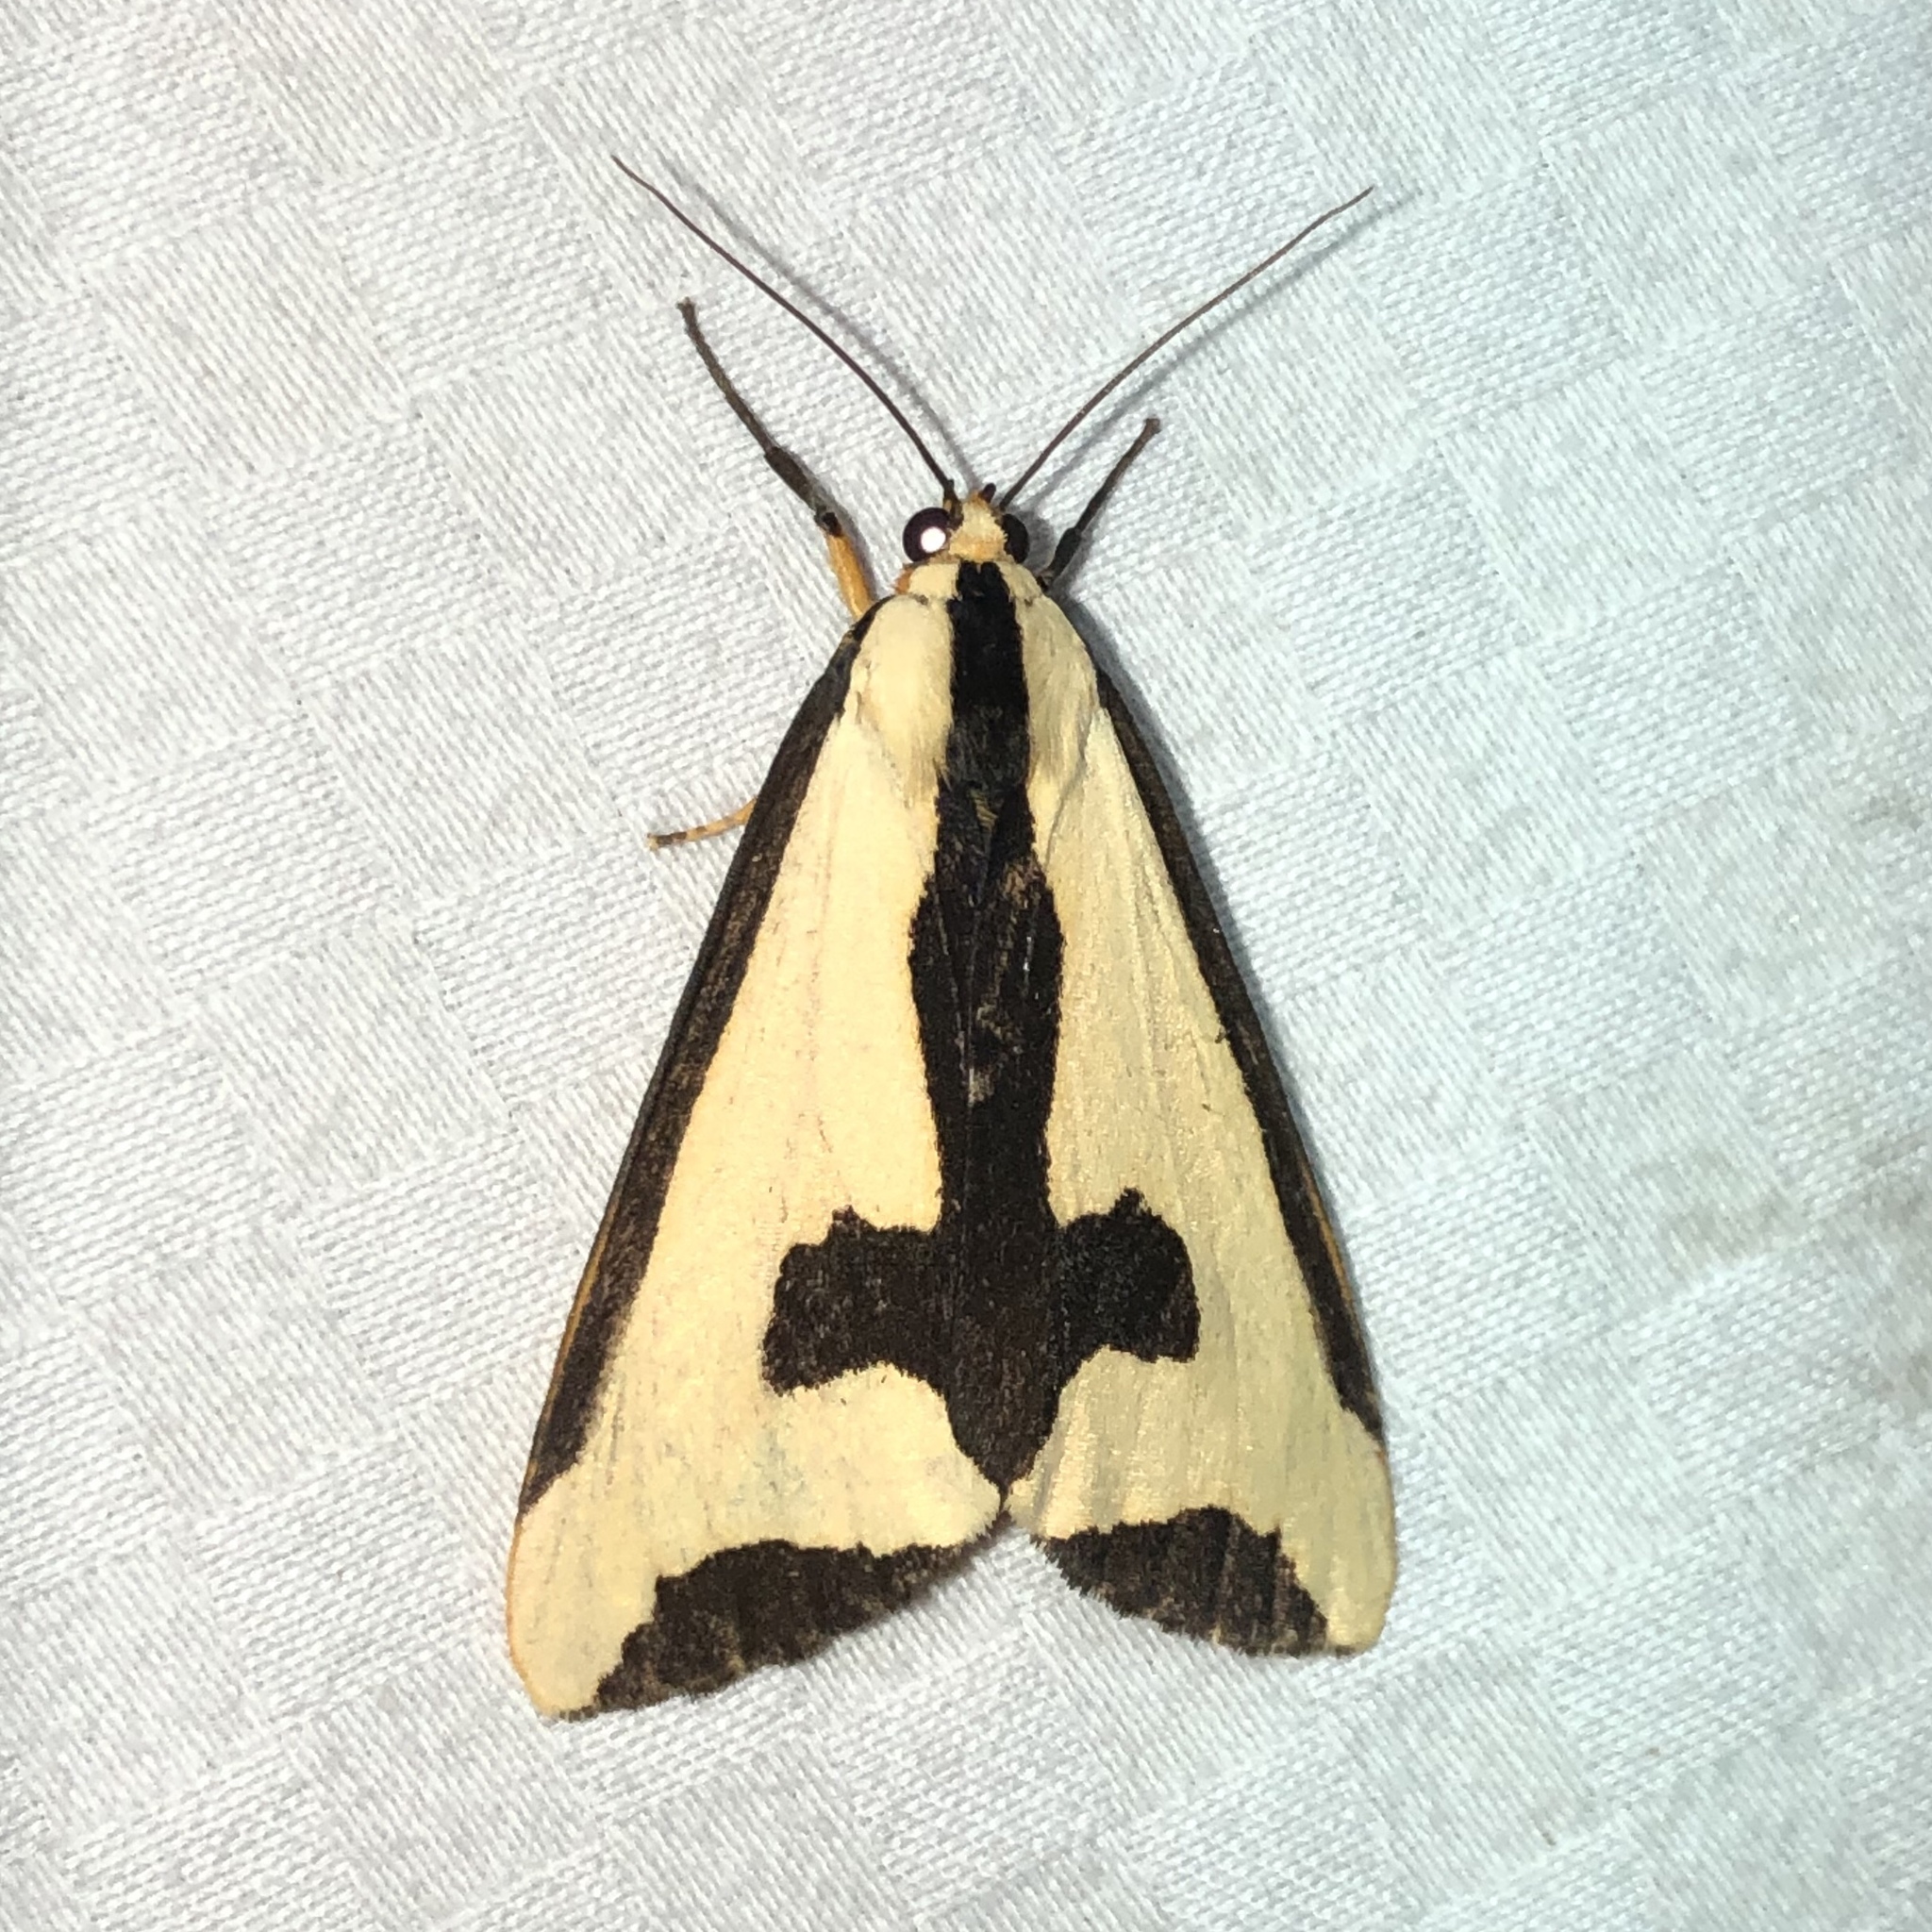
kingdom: Animalia
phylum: Arthropoda
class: Insecta
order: Lepidoptera
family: Erebidae
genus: Haploa
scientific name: Haploa clymene
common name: Clymene moth
